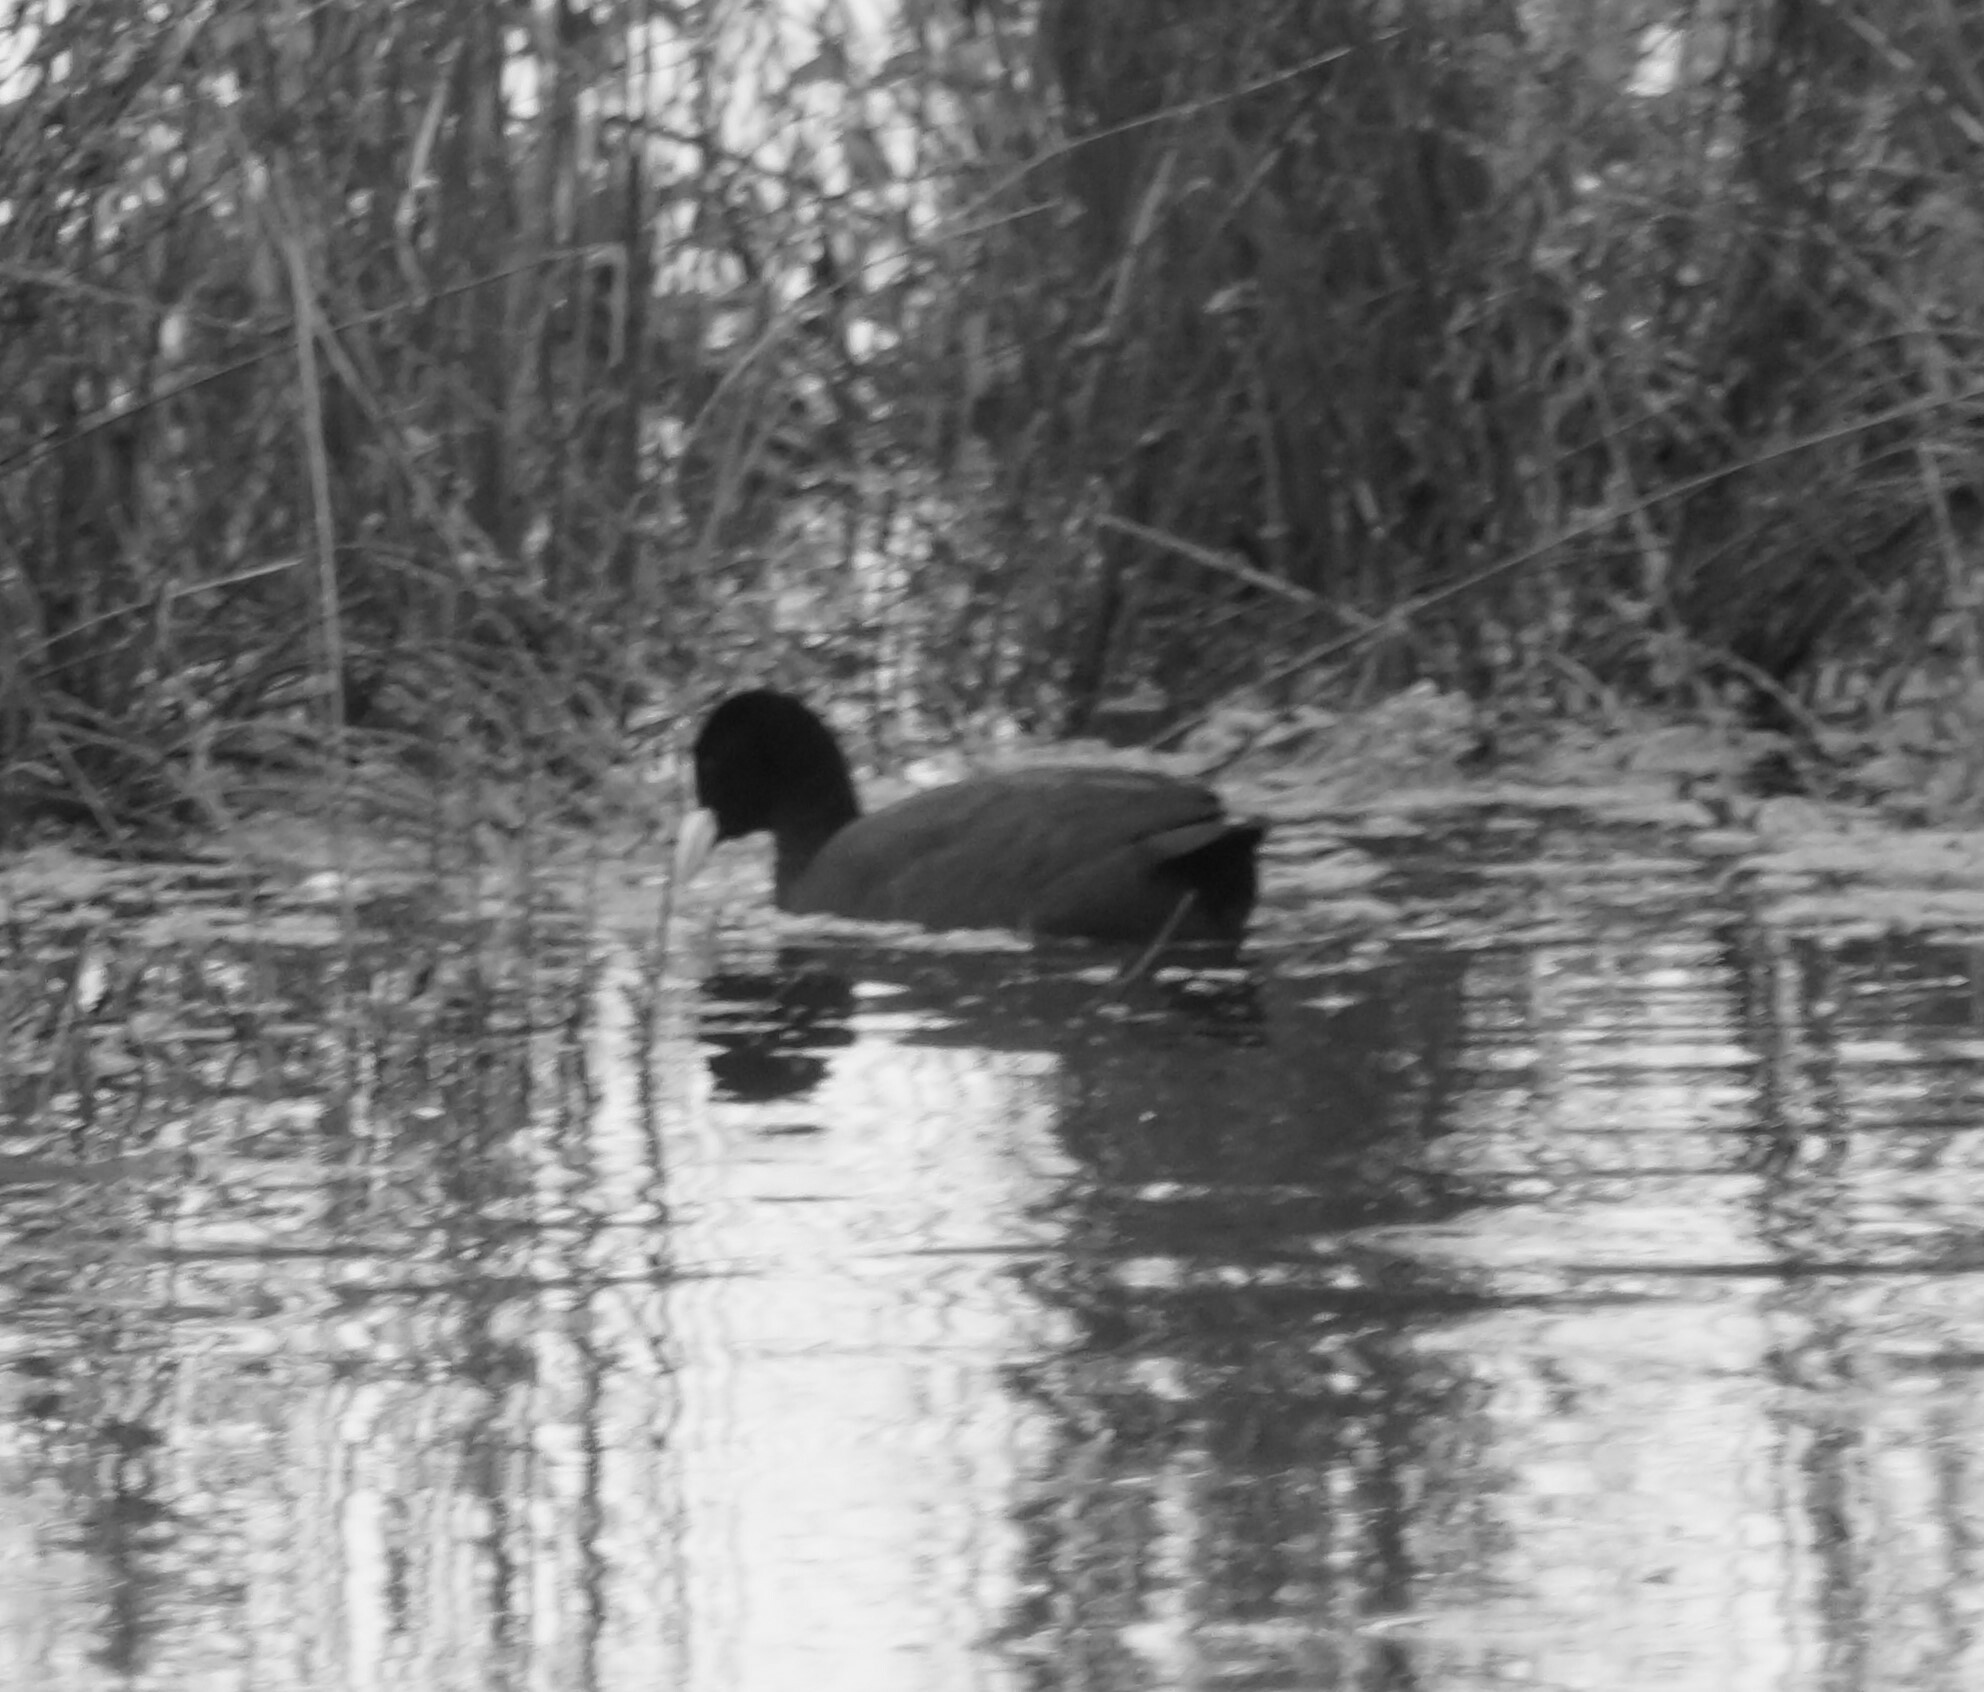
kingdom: Animalia
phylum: Chordata
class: Aves
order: Gruiformes
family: Rallidae
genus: Fulica
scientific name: Fulica atra
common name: Eurasian coot
